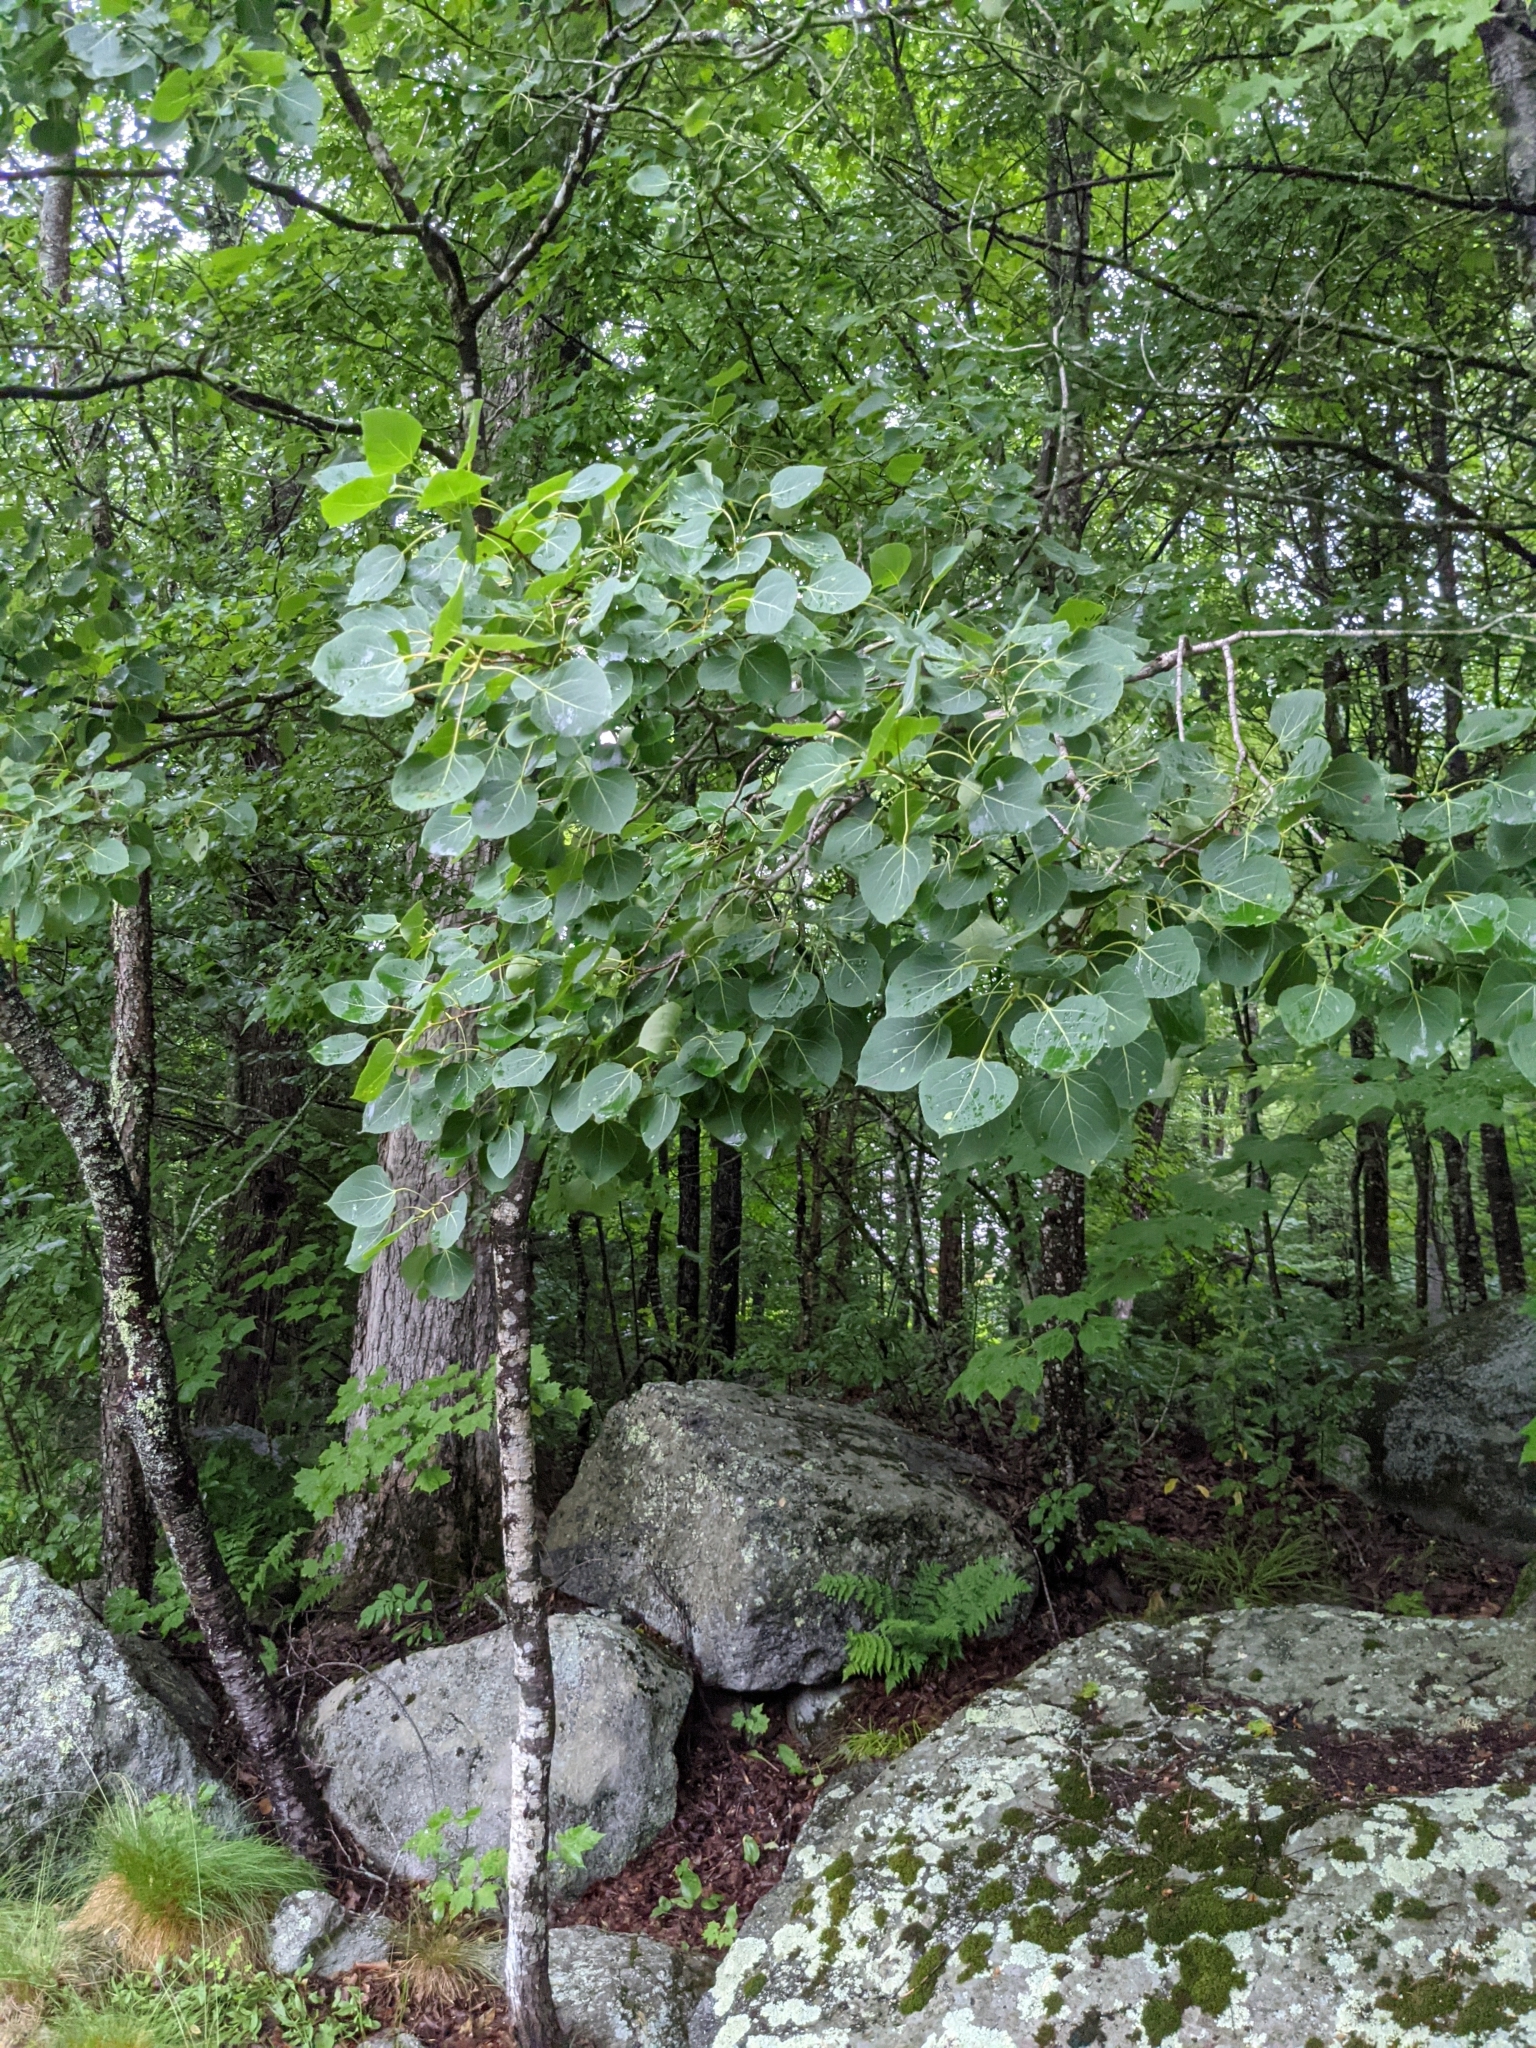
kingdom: Plantae
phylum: Tracheophyta
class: Magnoliopsida
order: Malpighiales
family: Salicaceae
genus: Populus
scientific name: Populus tremuloides
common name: Quaking aspen
